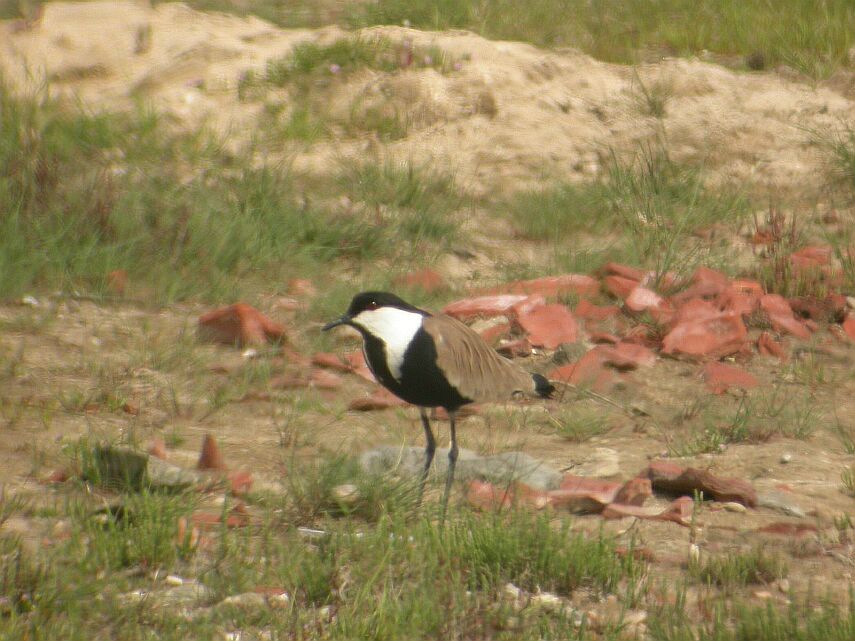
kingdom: Animalia
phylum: Chordata
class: Aves
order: Charadriiformes
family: Charadriidae
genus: Vanellus
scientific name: Vanellus spinosus
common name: Spur-winged lapwing
